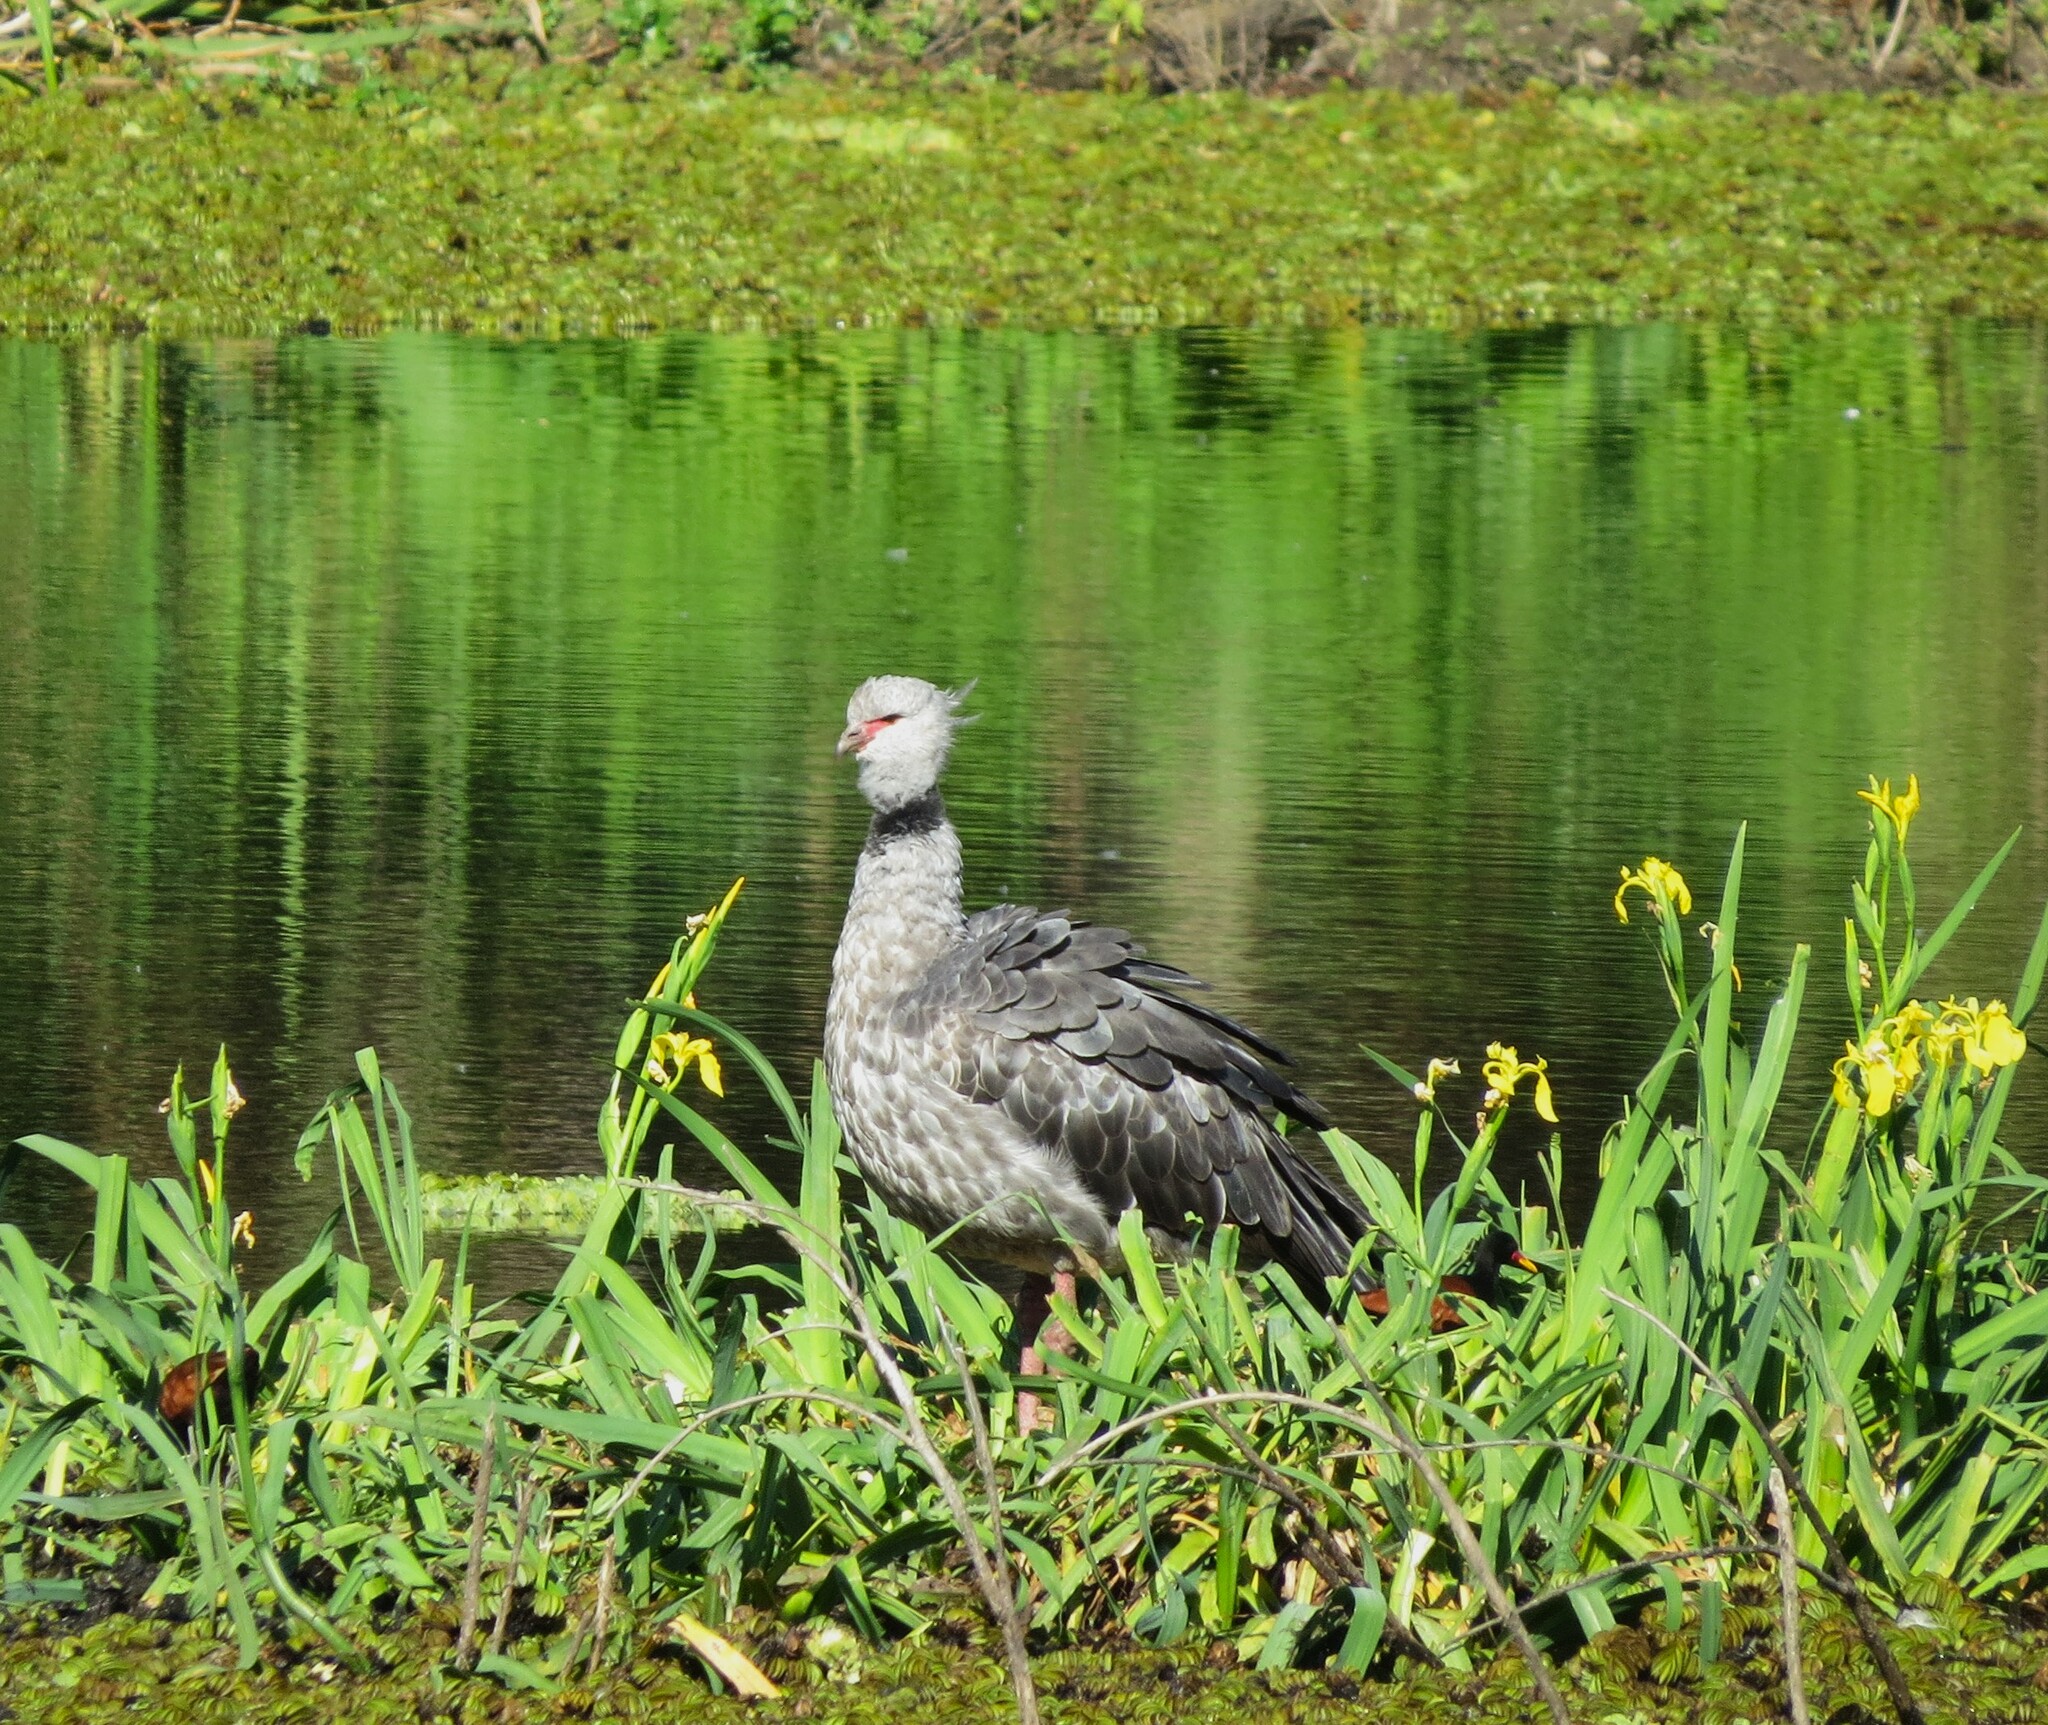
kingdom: Animalia
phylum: Chordata
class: Aves
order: Anseriformes
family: Anhimidae
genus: Chauna
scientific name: Chauna torquata
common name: Southern screamer
